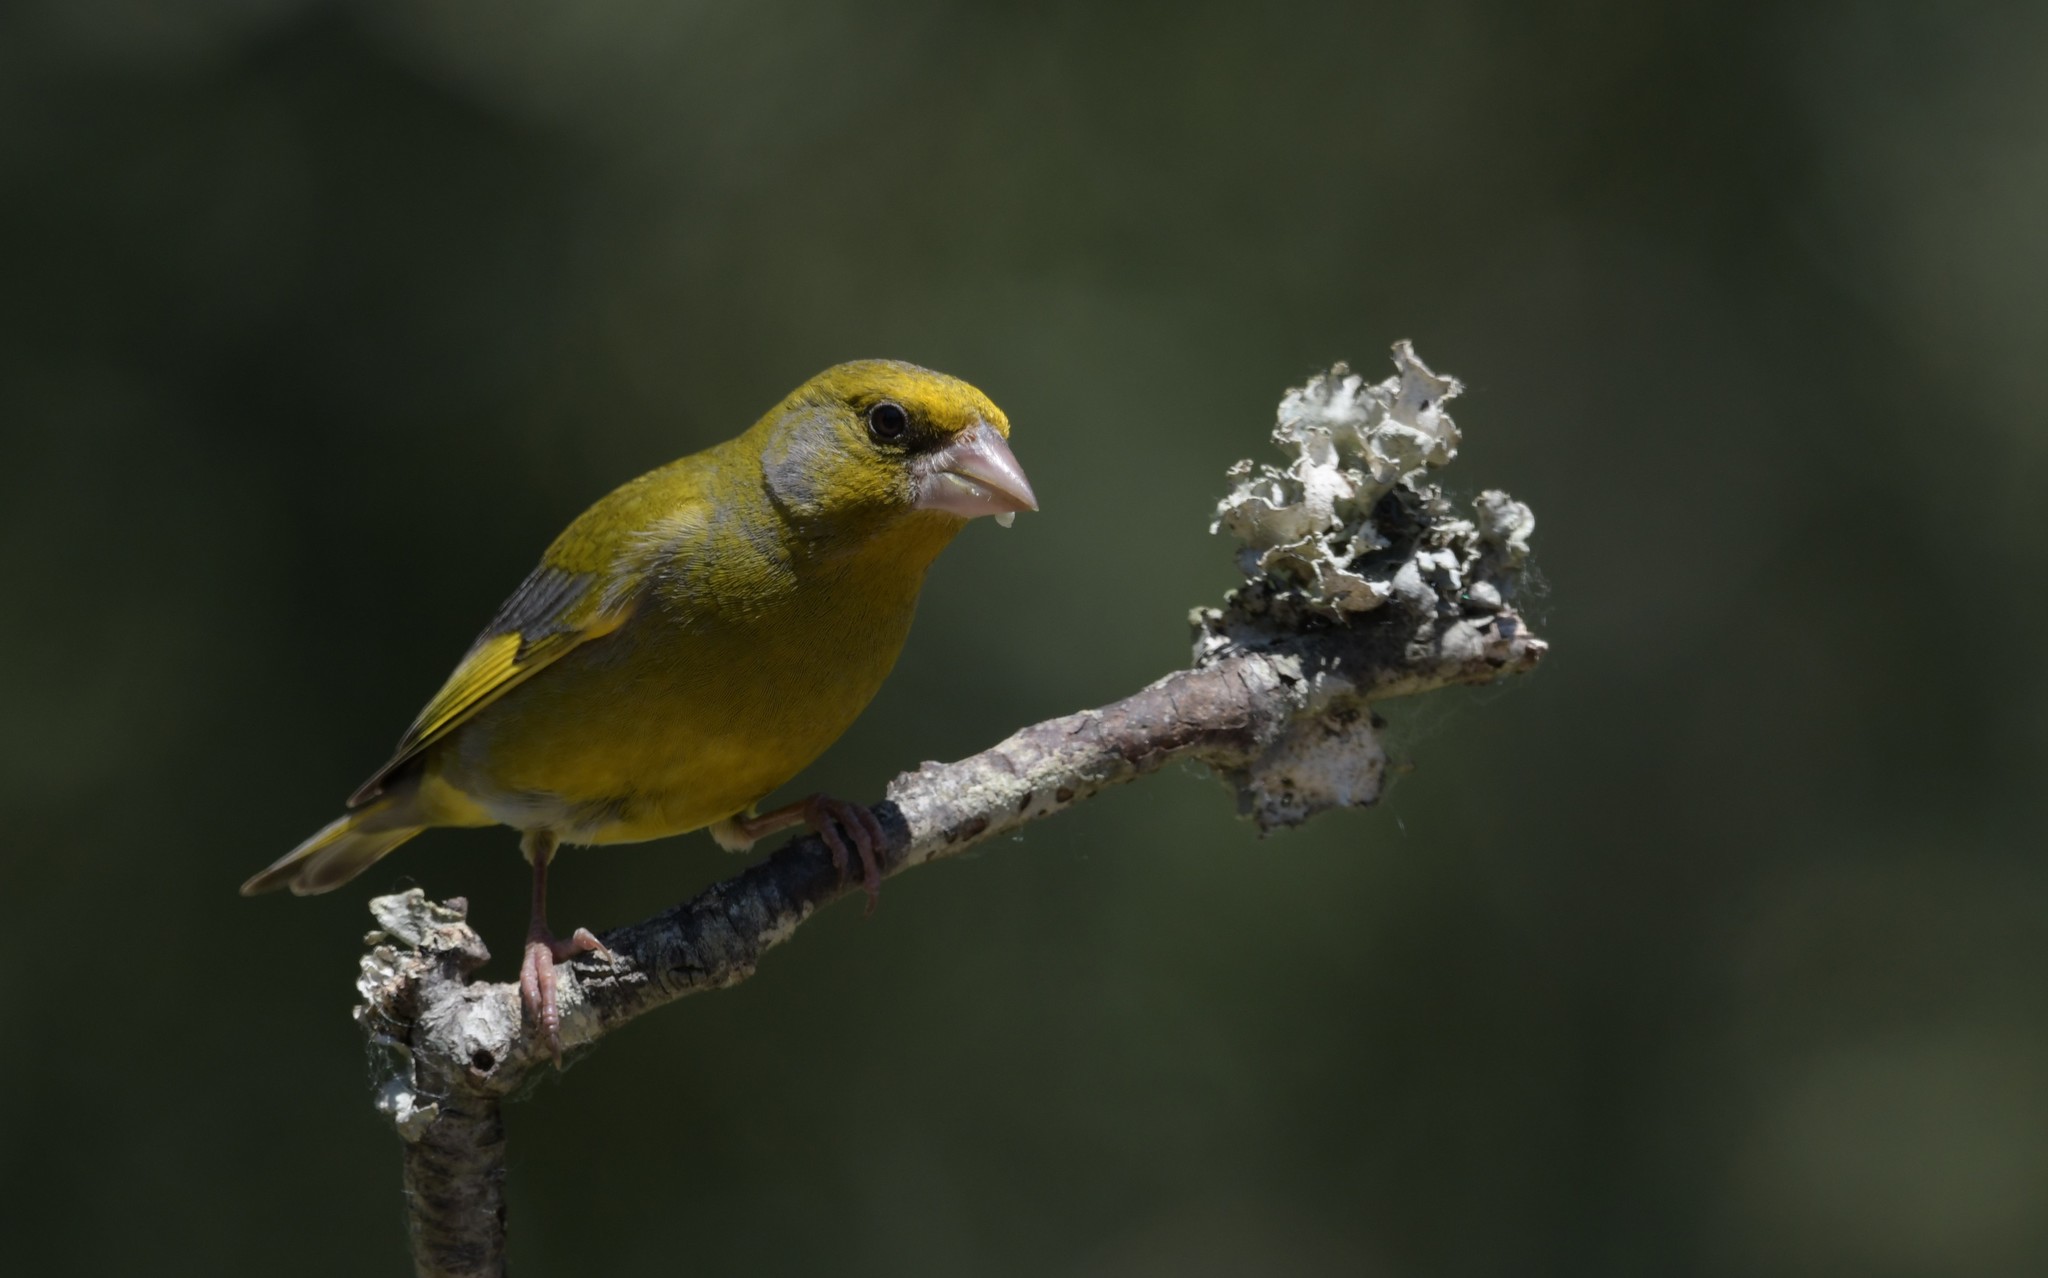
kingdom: Plantae
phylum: Tracheophyta
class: Liliopsida
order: Poales
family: Poaceae
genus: Chloris
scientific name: Chloris chloris
